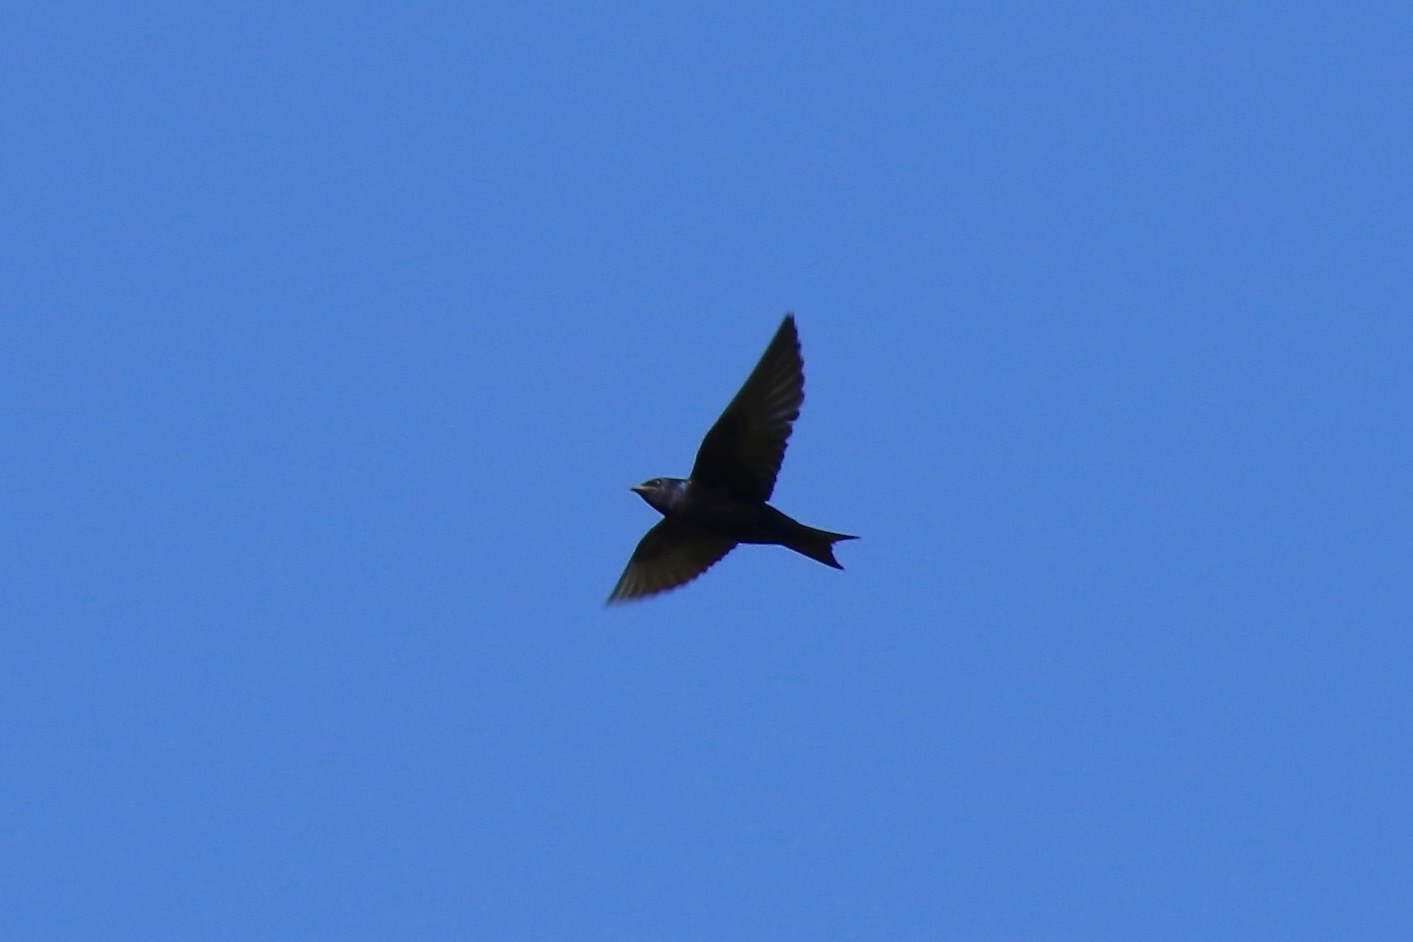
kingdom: Animalia
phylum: Chordata
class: Aves
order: Passeriformes
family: Hirundinidae
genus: Progne
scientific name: Progne subis
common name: Purple martin
